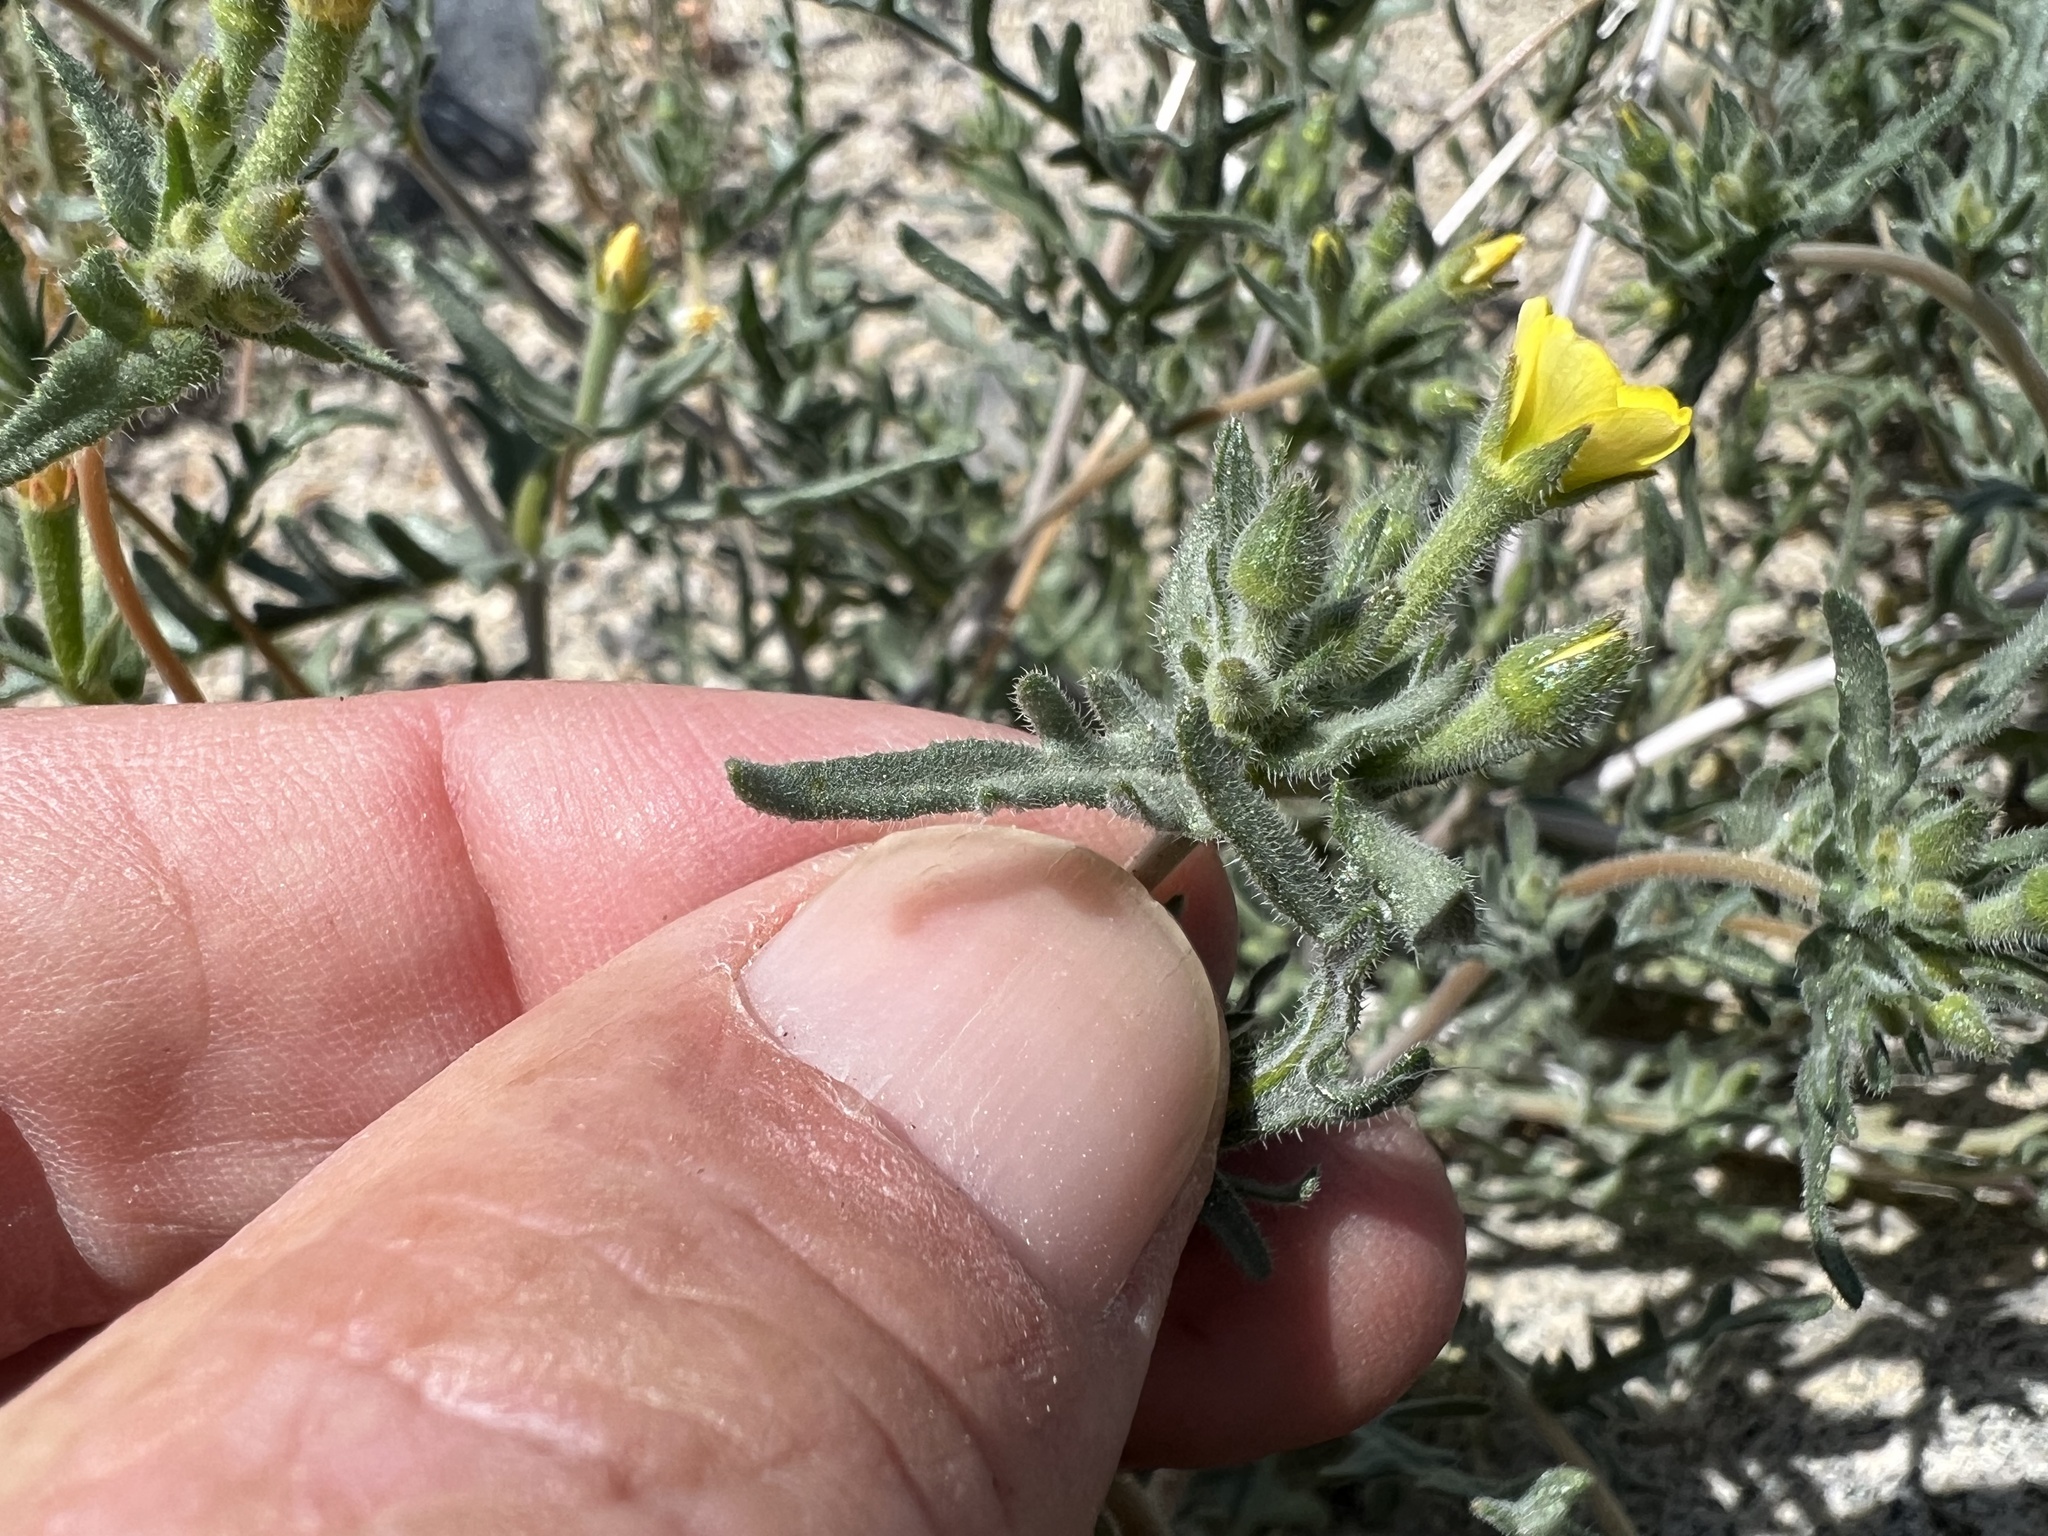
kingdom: Plantae
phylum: Tracheophyta
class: Magnoliopsida
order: Cornales
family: Loasaceae
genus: Mentzelia
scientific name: Mentzelia albicaulis
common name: White-stem blazingstar
